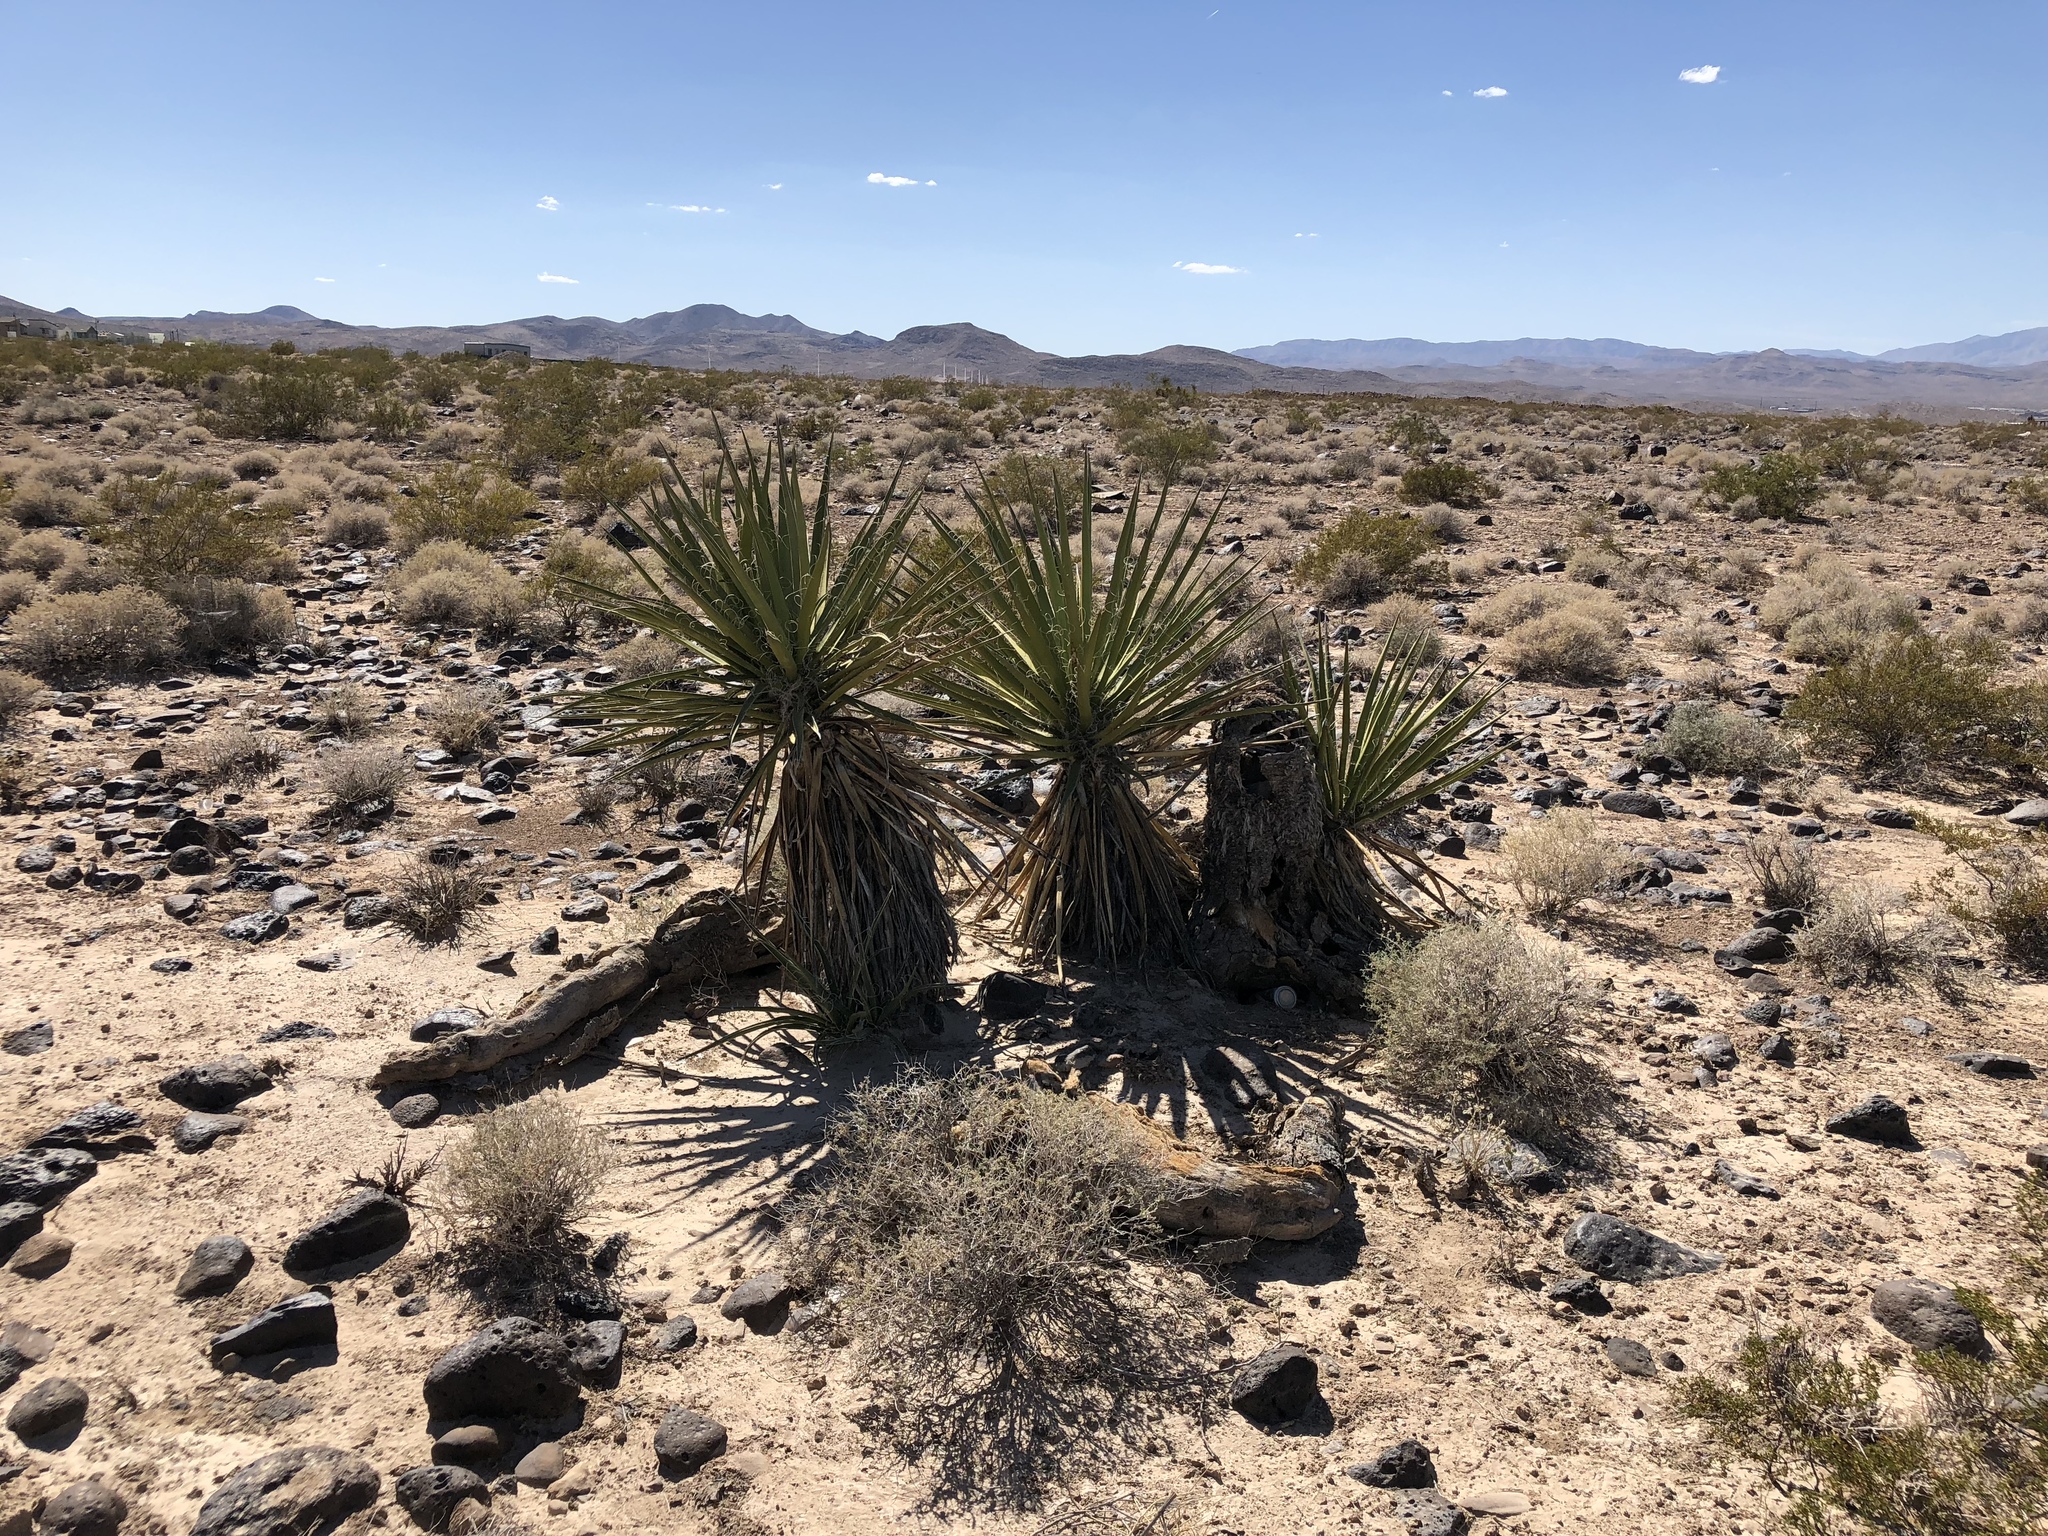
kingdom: Plantae
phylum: Tracheophyta
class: Liliopsida
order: Asparagales
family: Asparagaceae
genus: Yucca
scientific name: Yucca schidigera
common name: Mojave yucca
